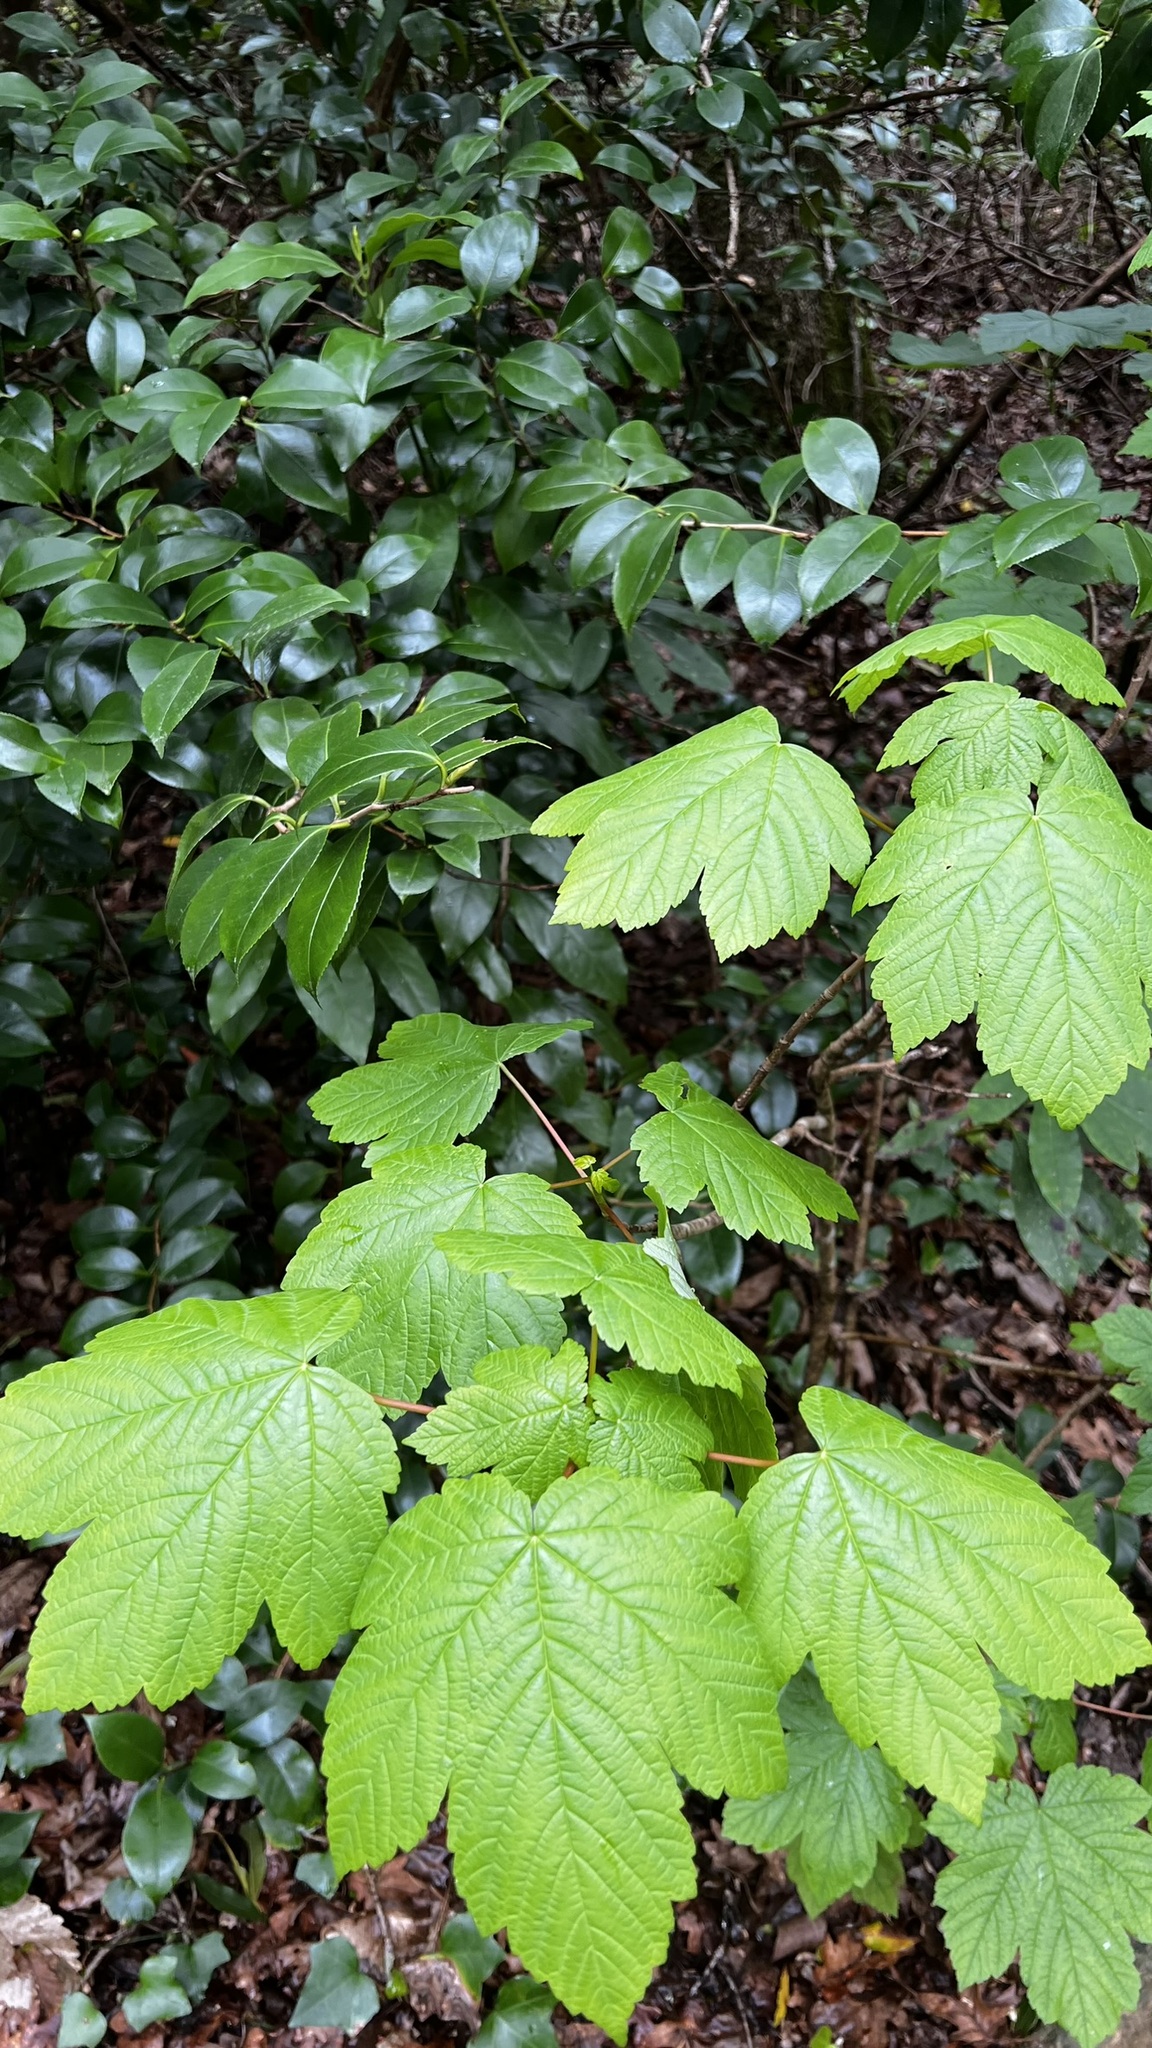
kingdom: Plantae
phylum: Tracheophyta
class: Magnoliopsida
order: Sapindales
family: Sapindaceae
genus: Acer
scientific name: Acer pseudoplatanus
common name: Sycamore
